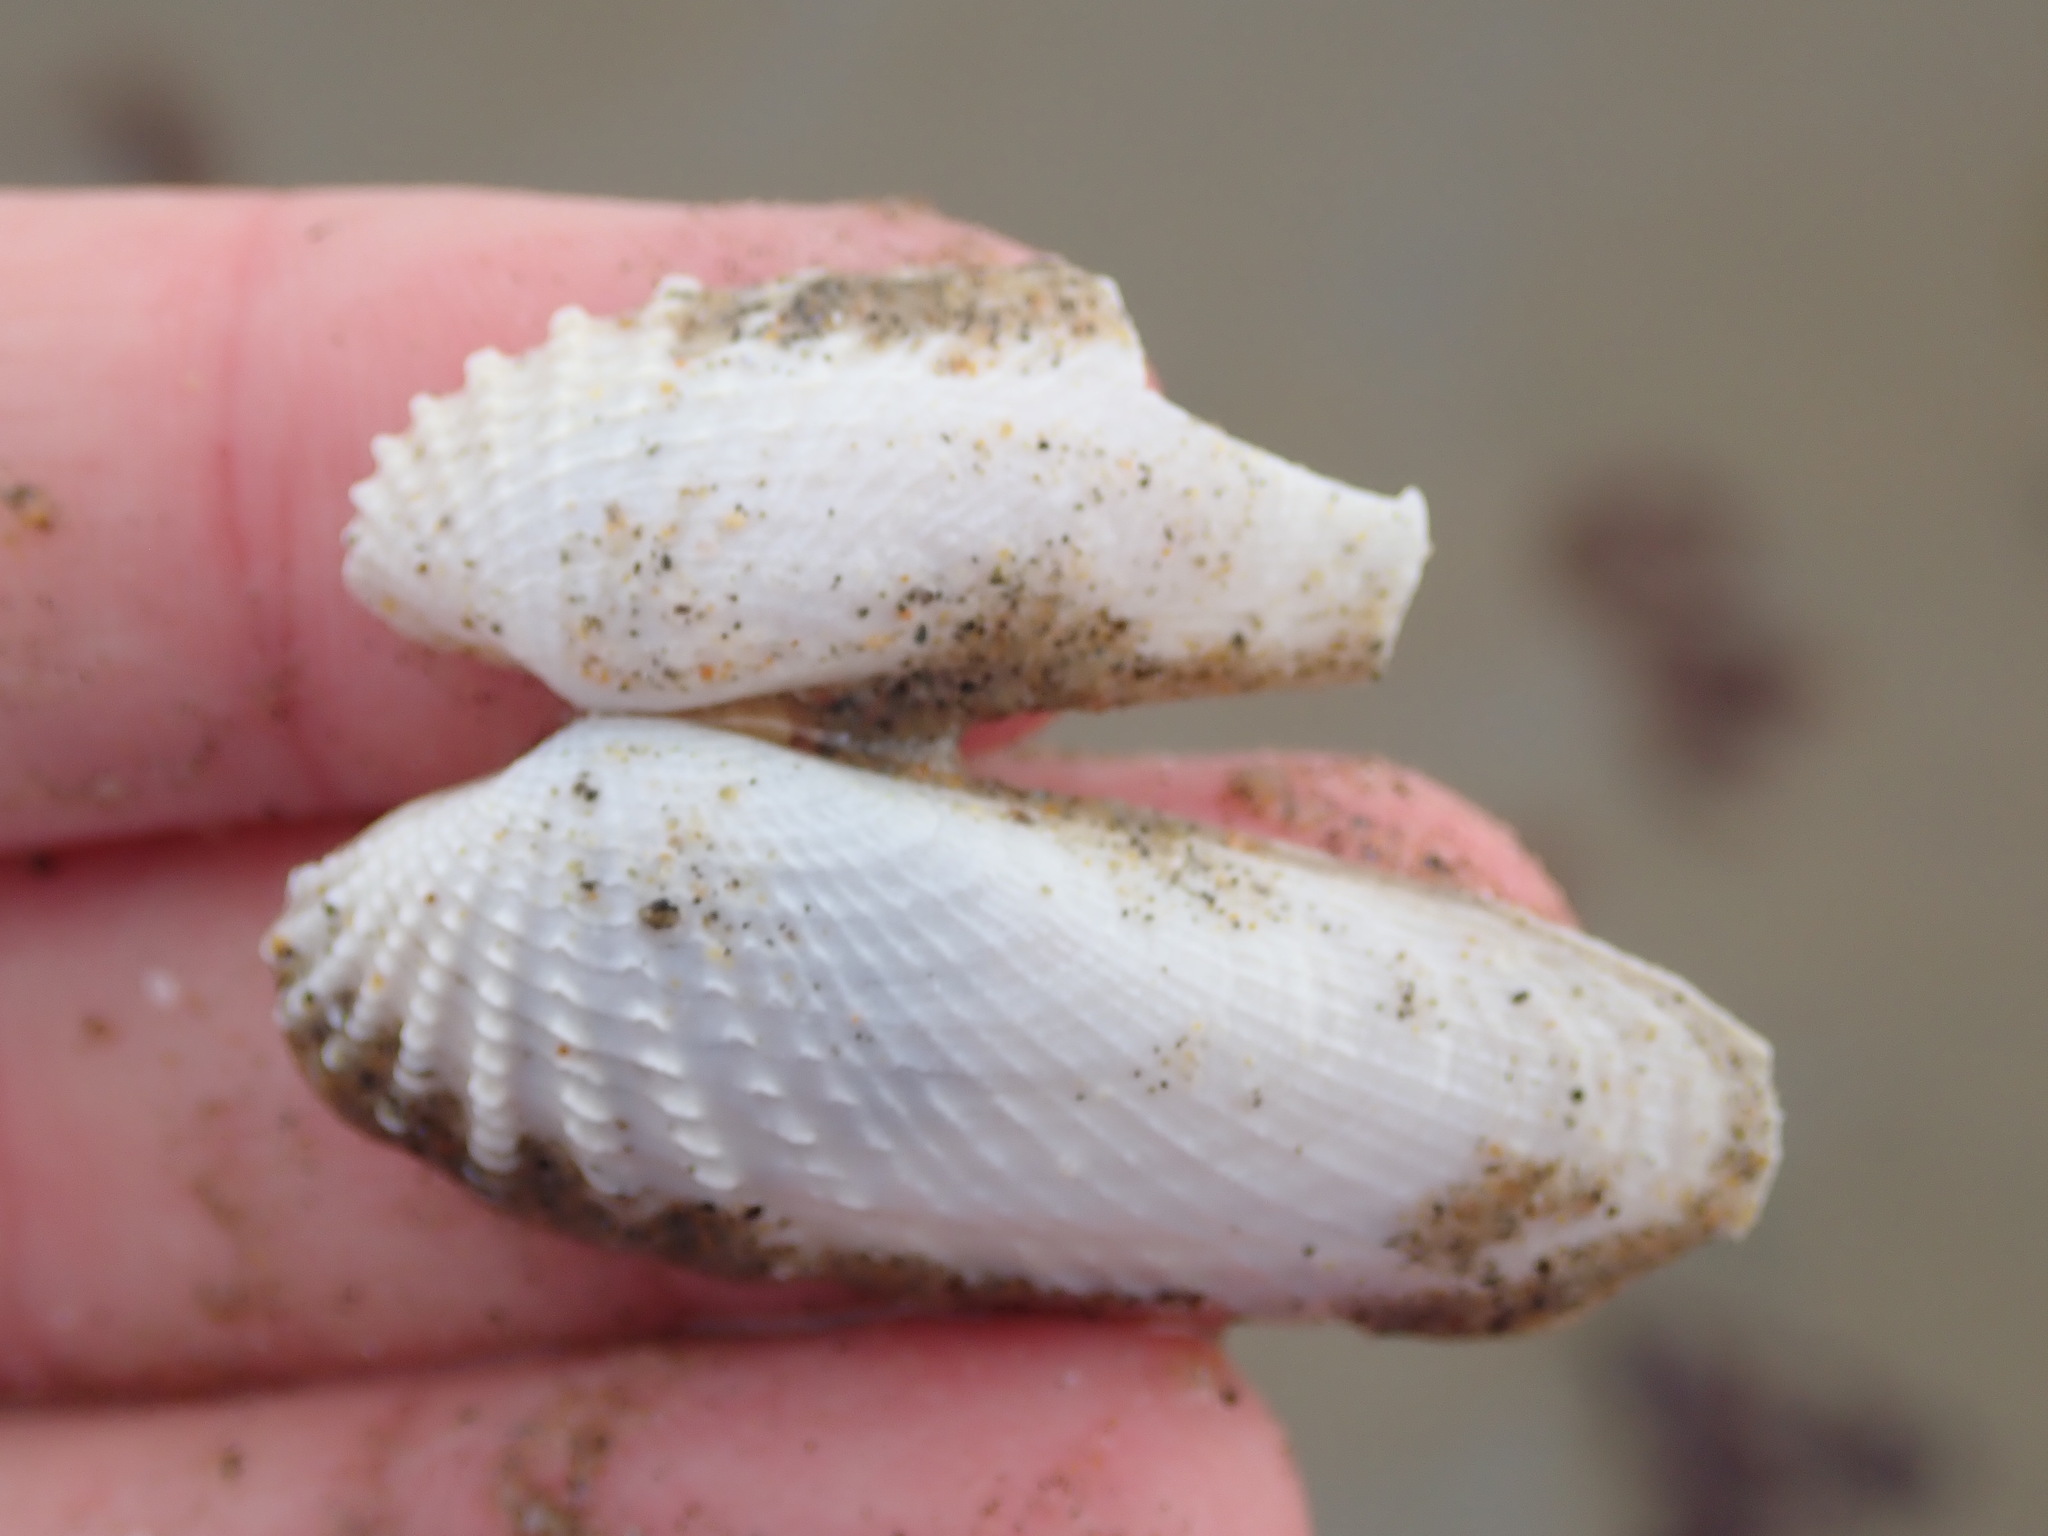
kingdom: Animalia
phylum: Mollusca
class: Bivalvia
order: Venerida
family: Veneridae
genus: Petricolaria
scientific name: Petricolaria pholadiformis
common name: American piddock
